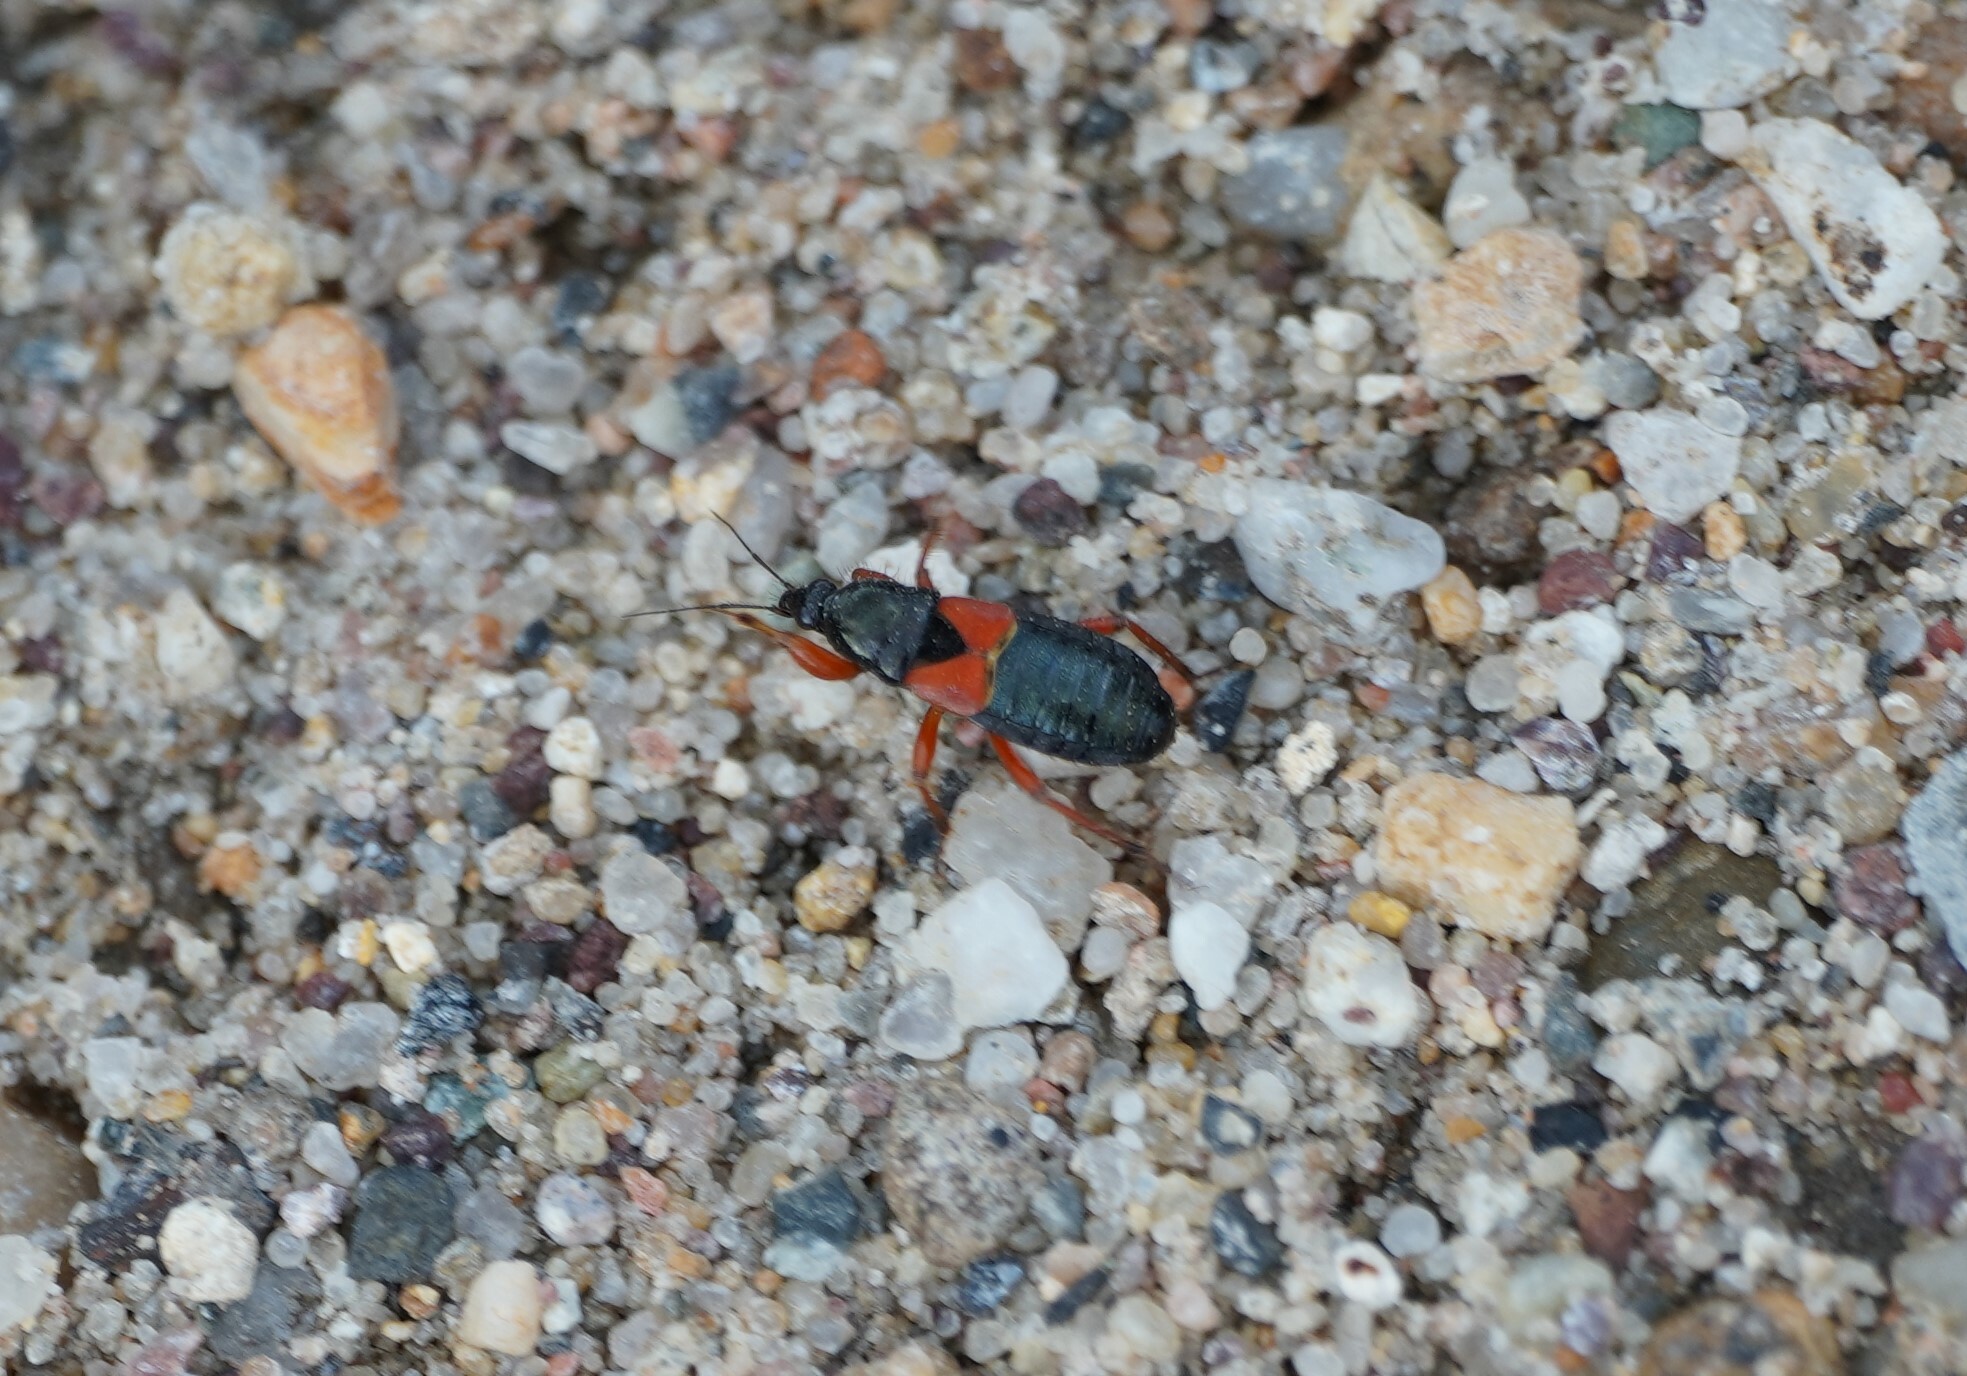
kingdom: Animalia
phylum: Arthropoda
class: Insecta
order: Hemiptera
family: Nabidae
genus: Prostemma
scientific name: Prostemma guttula
